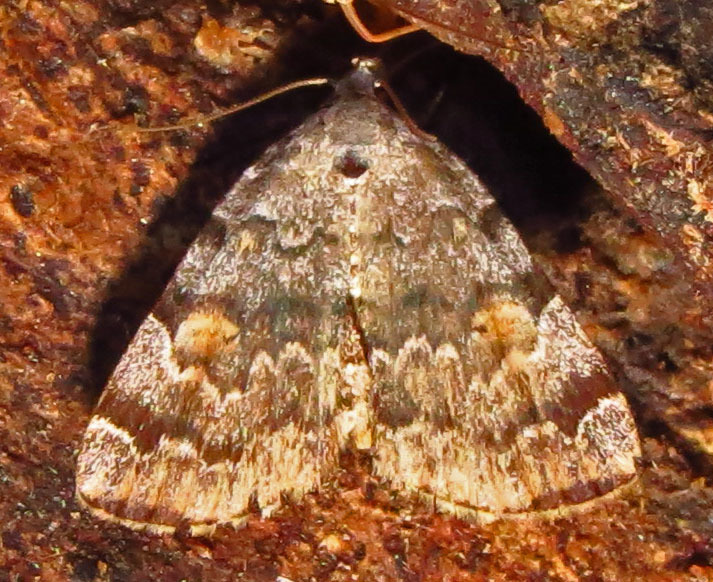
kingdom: Animalia
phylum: Arthropoda
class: Insecta
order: Lepidoptera
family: Erebidae
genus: Idia
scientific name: Idia americalis
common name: American idia moth
